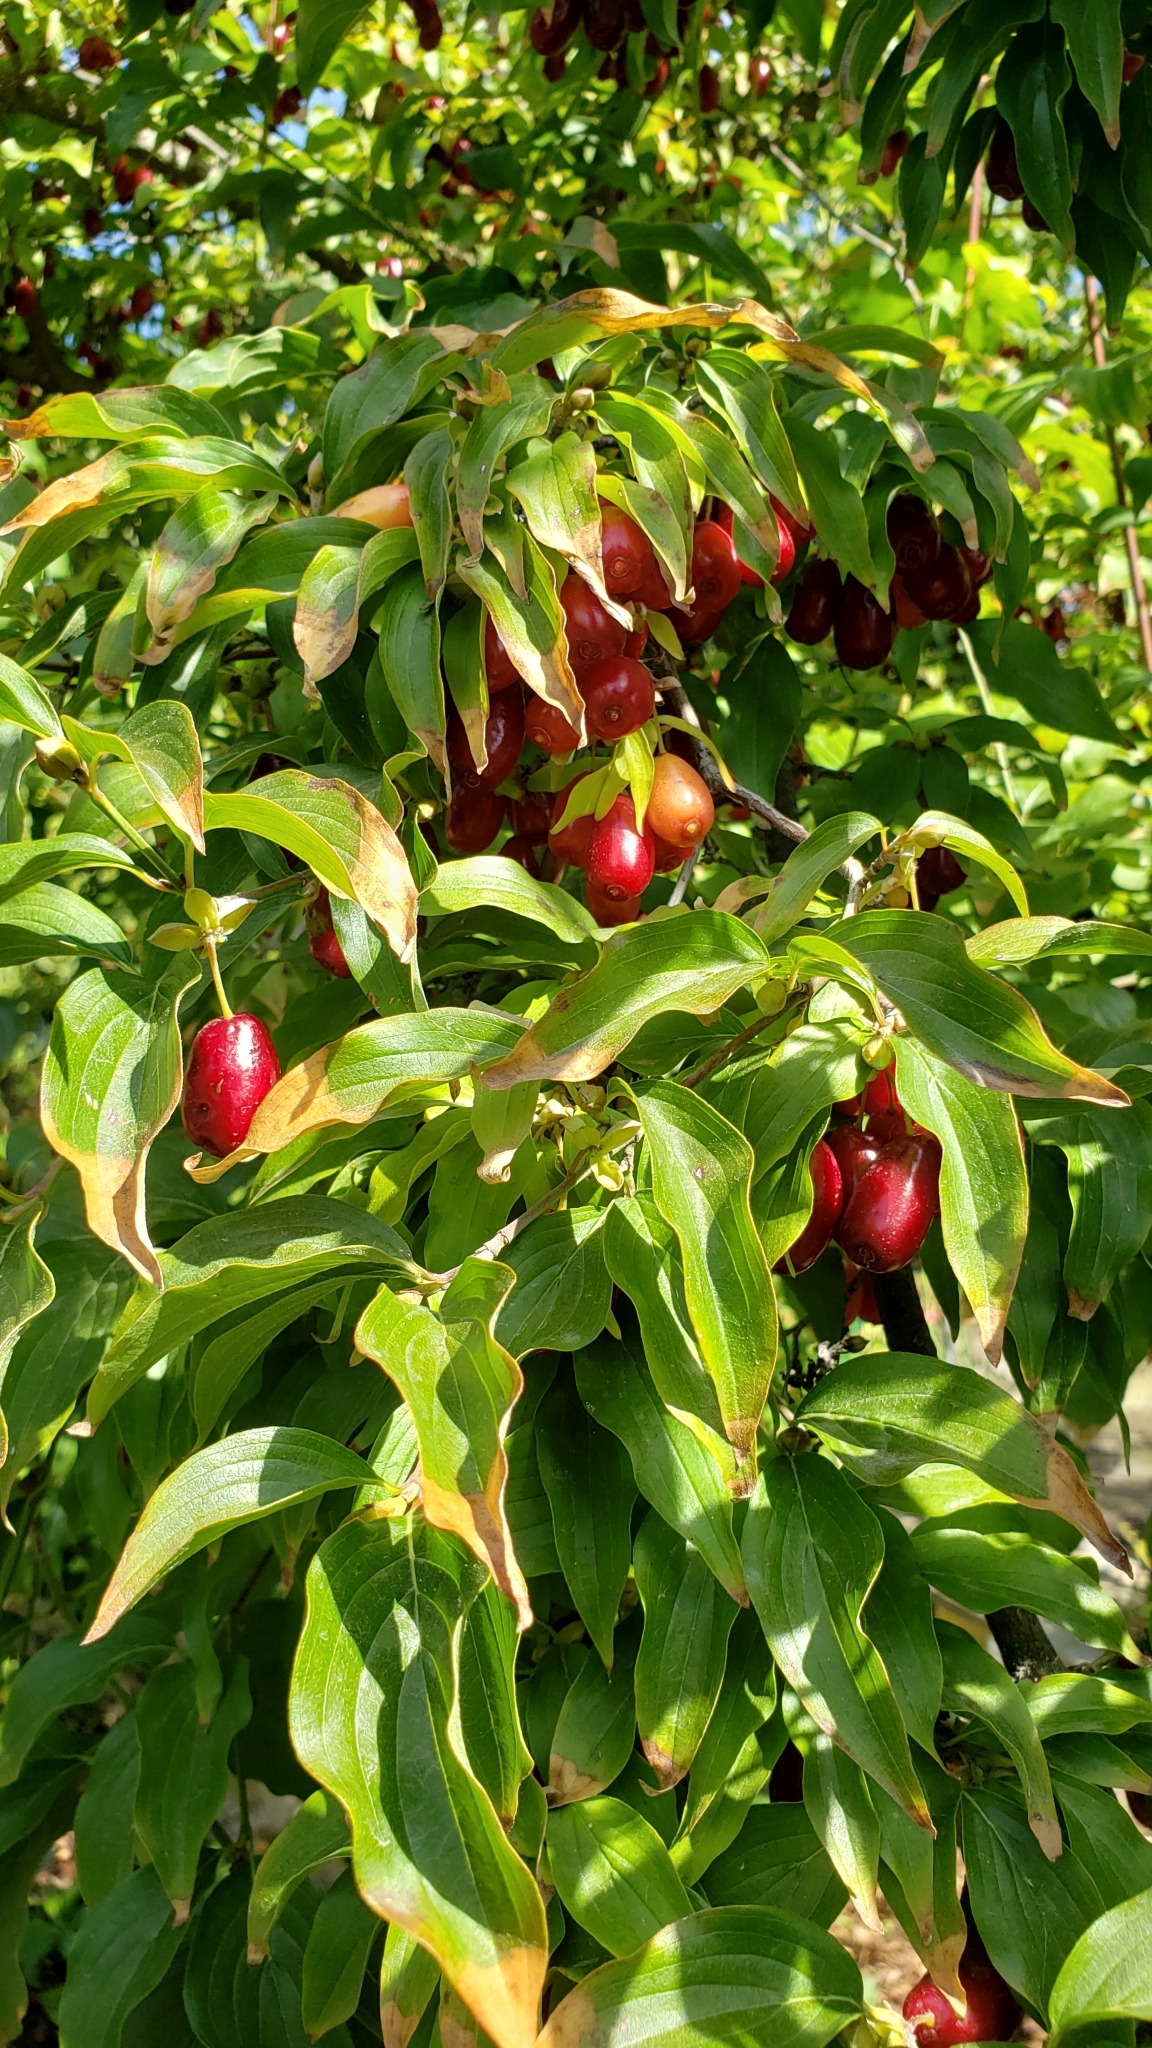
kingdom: Plantae
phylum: Tracheophyta
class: Magnoliopsida
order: Cornales
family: Cornaceae
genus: Cornus
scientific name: Cornus mas
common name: Cornelian-cherry
